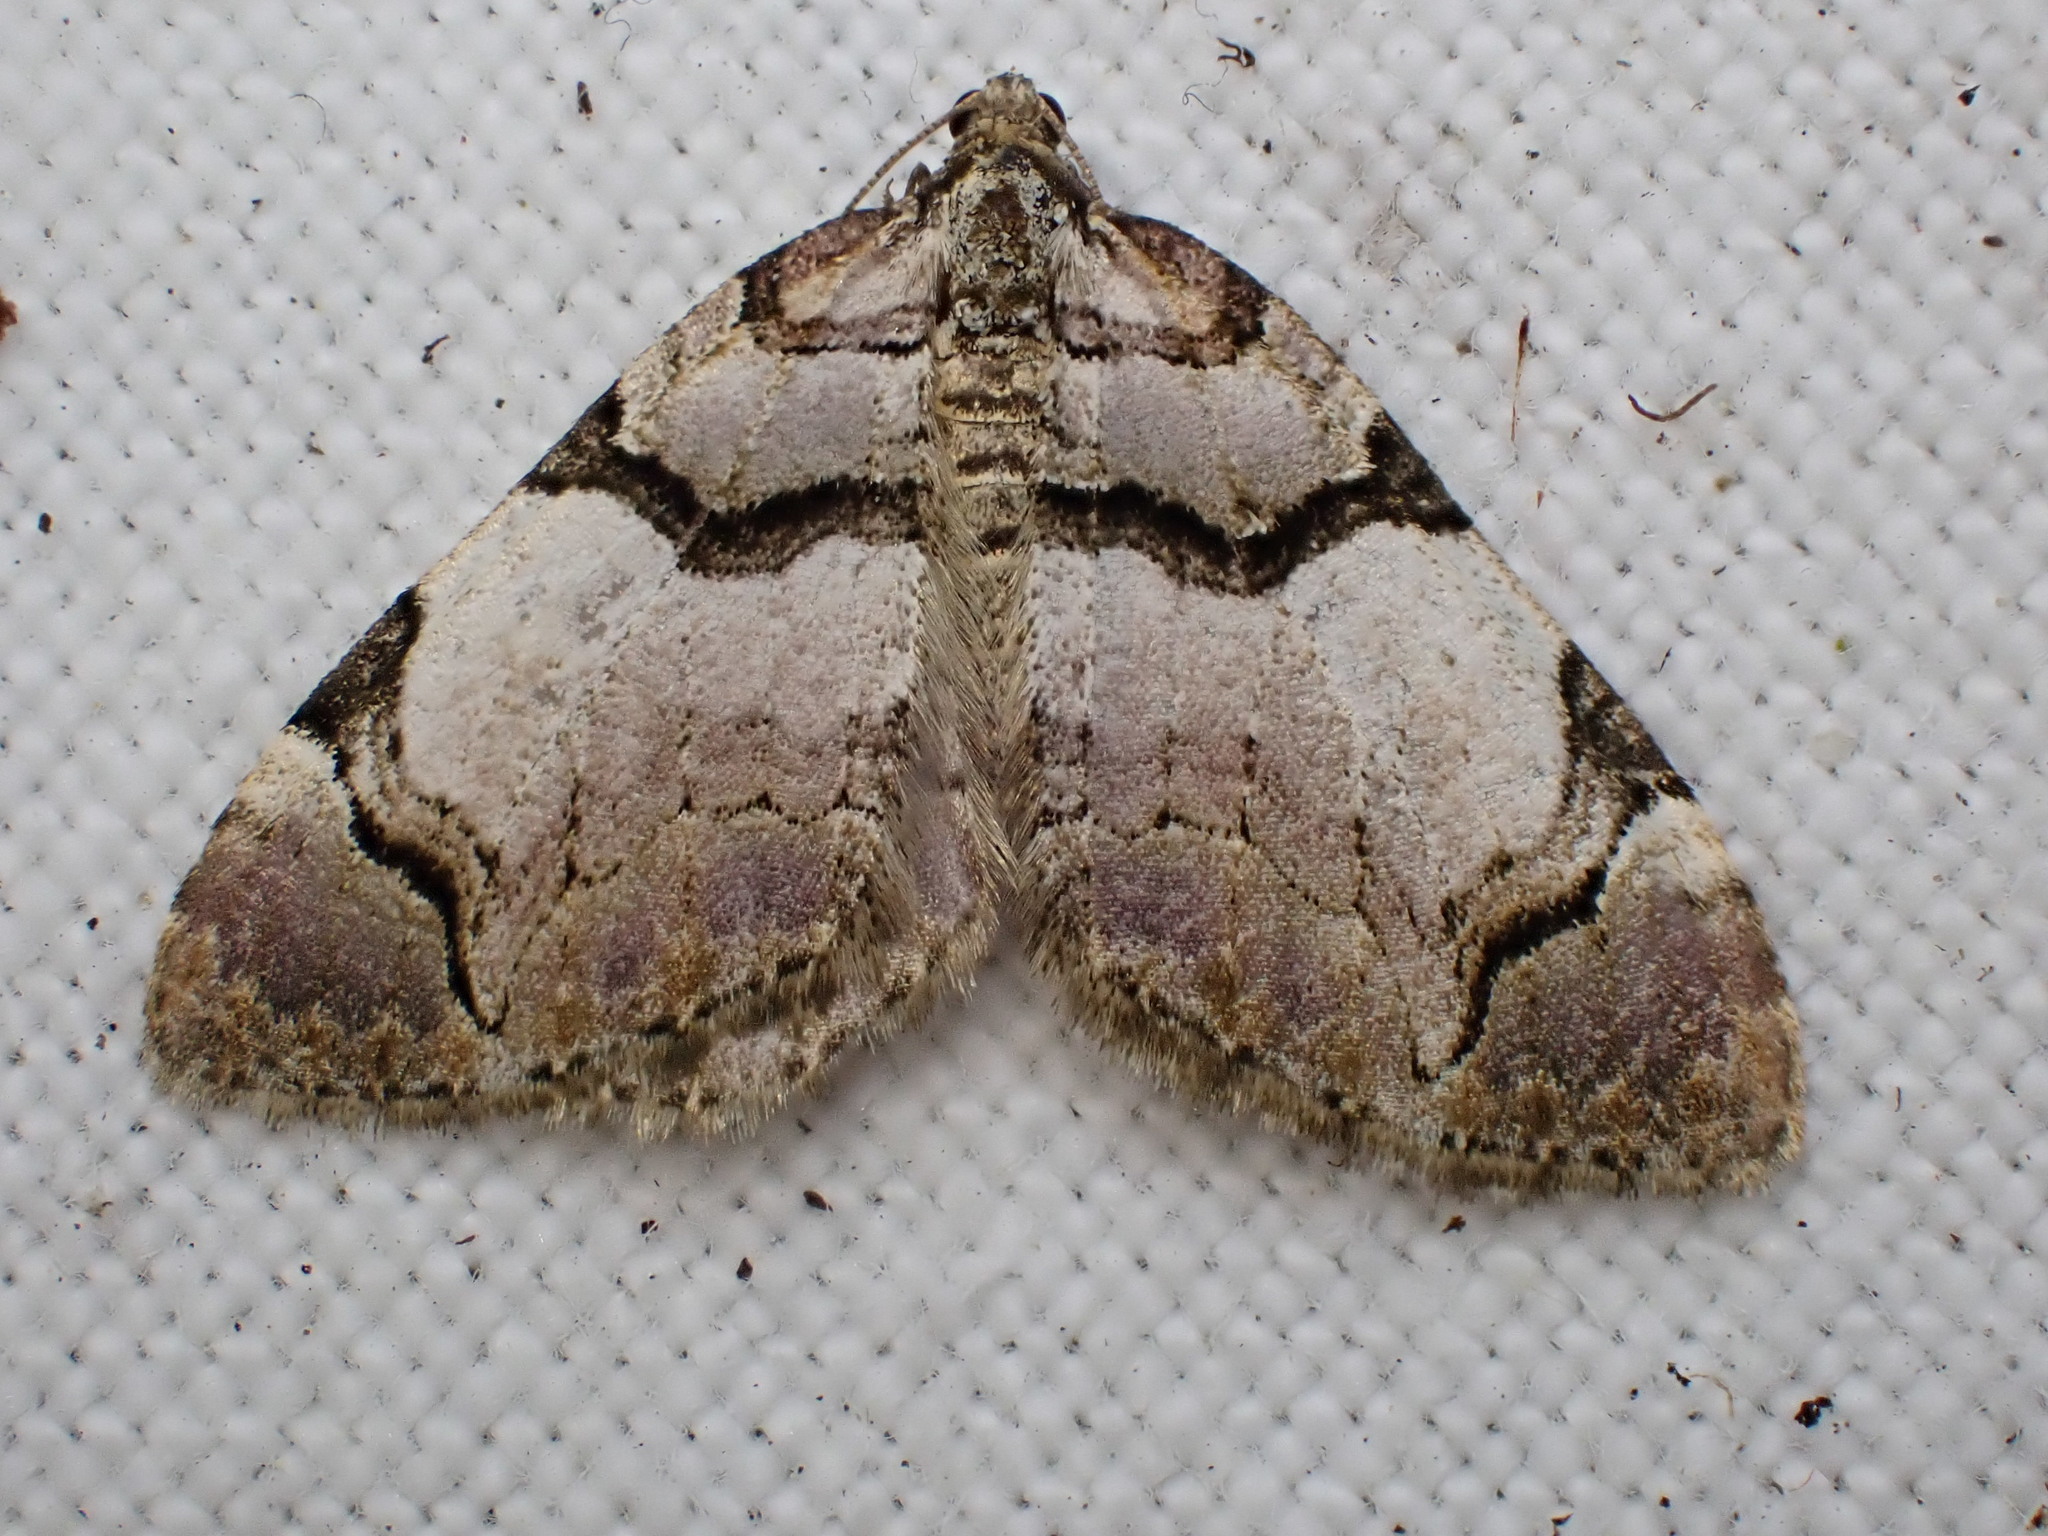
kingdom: Animalia
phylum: Arthropoda
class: Insecta
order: Lepidoptera
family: Geometridae
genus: Anticlea
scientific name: Anticlea derivata
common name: Streamer
